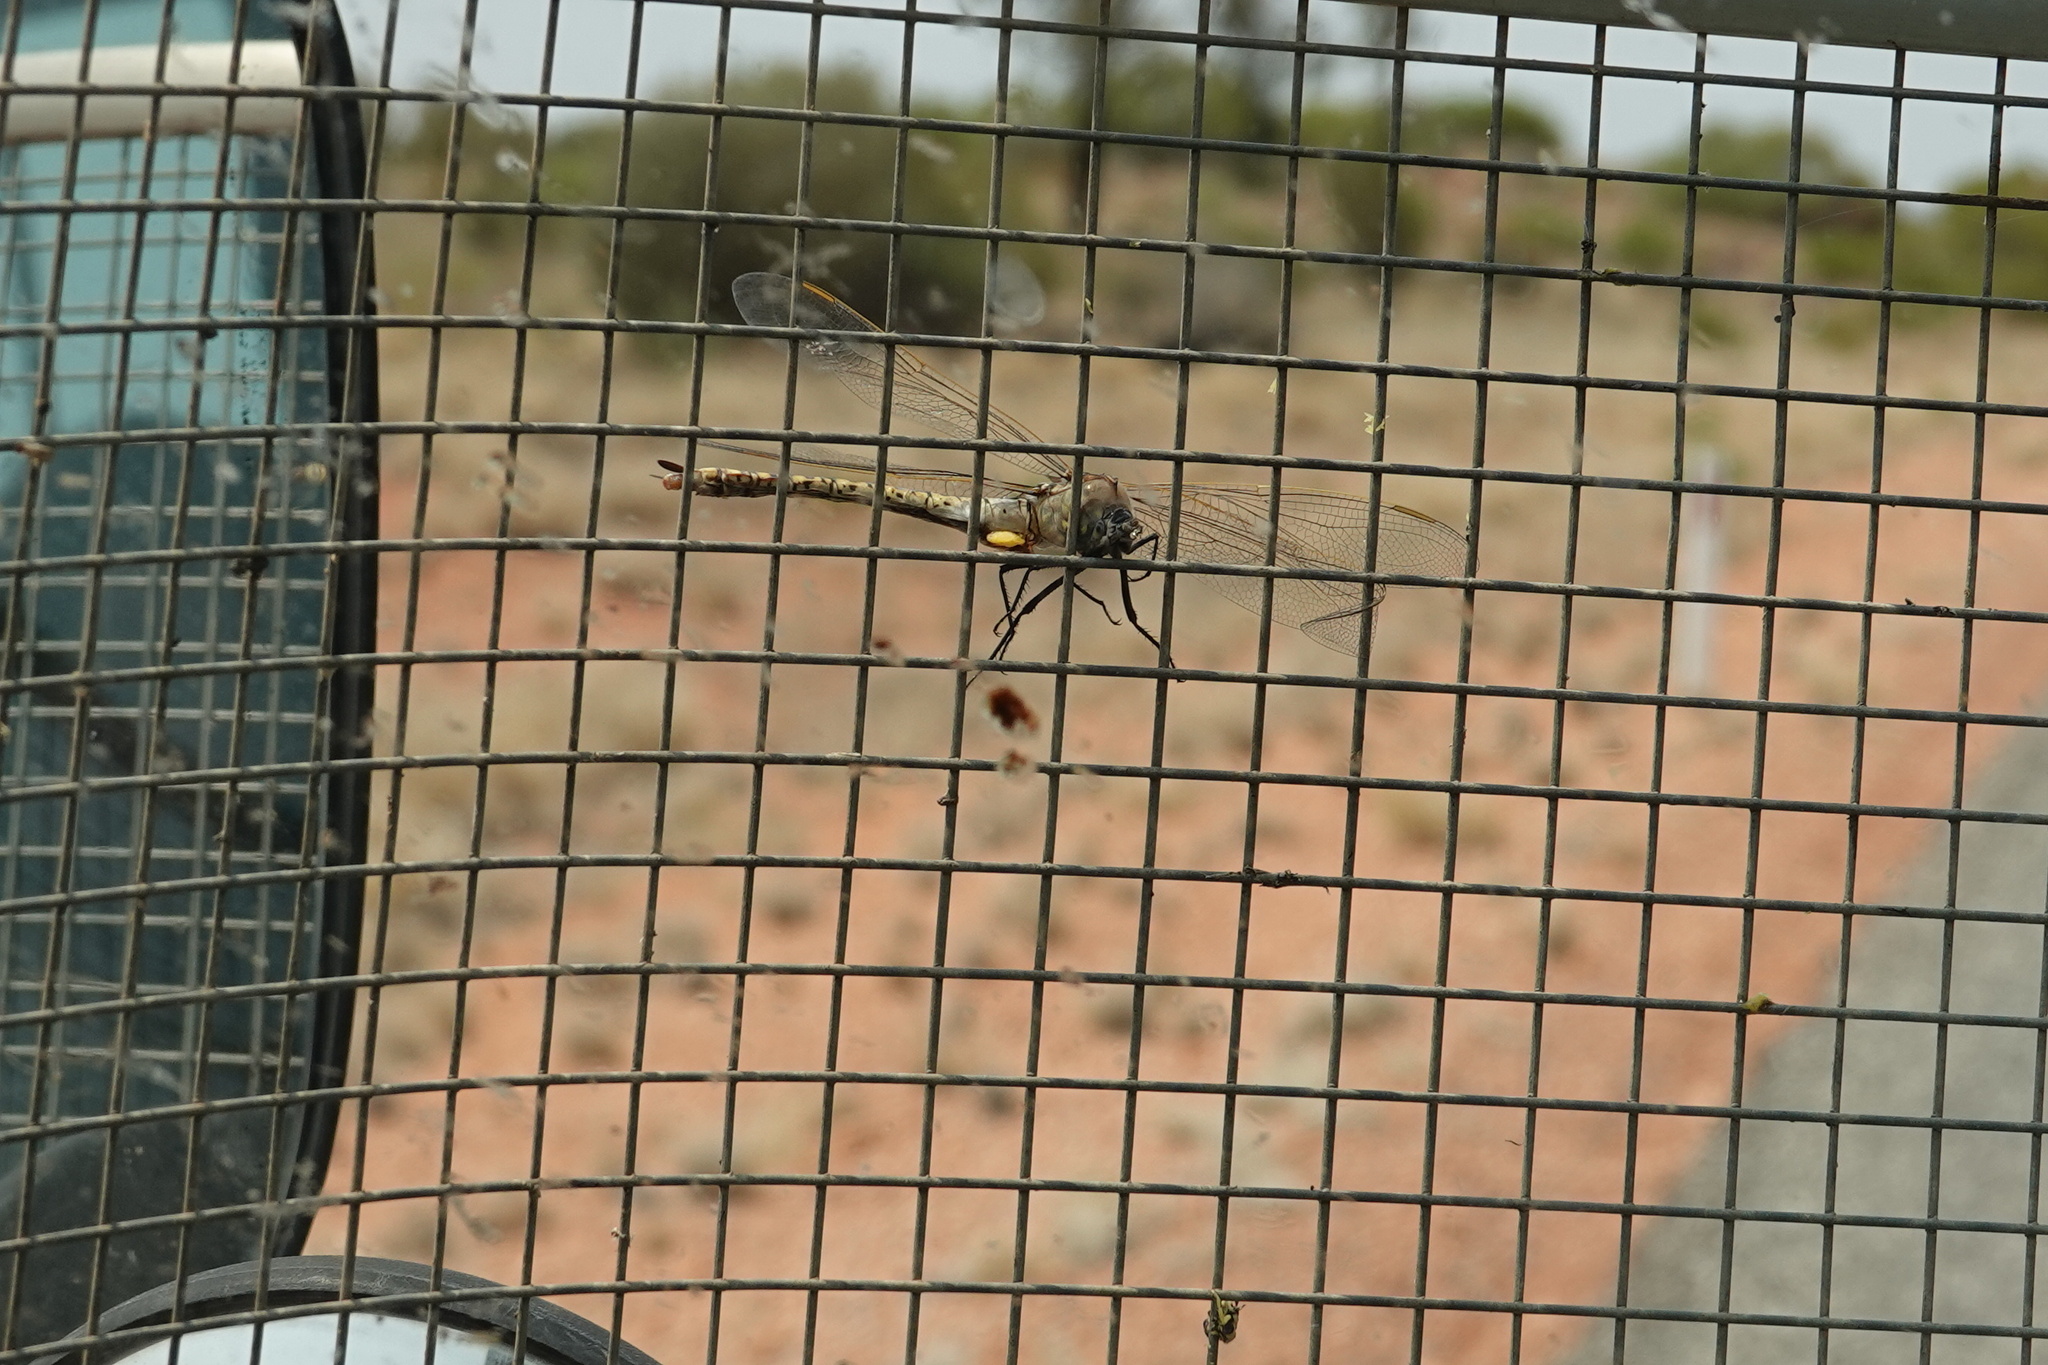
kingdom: Animalia
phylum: Arthropoda
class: Insecta
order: Odonata
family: Aeshnidae
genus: Anax
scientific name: Anax papuensis
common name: Australian emperor
